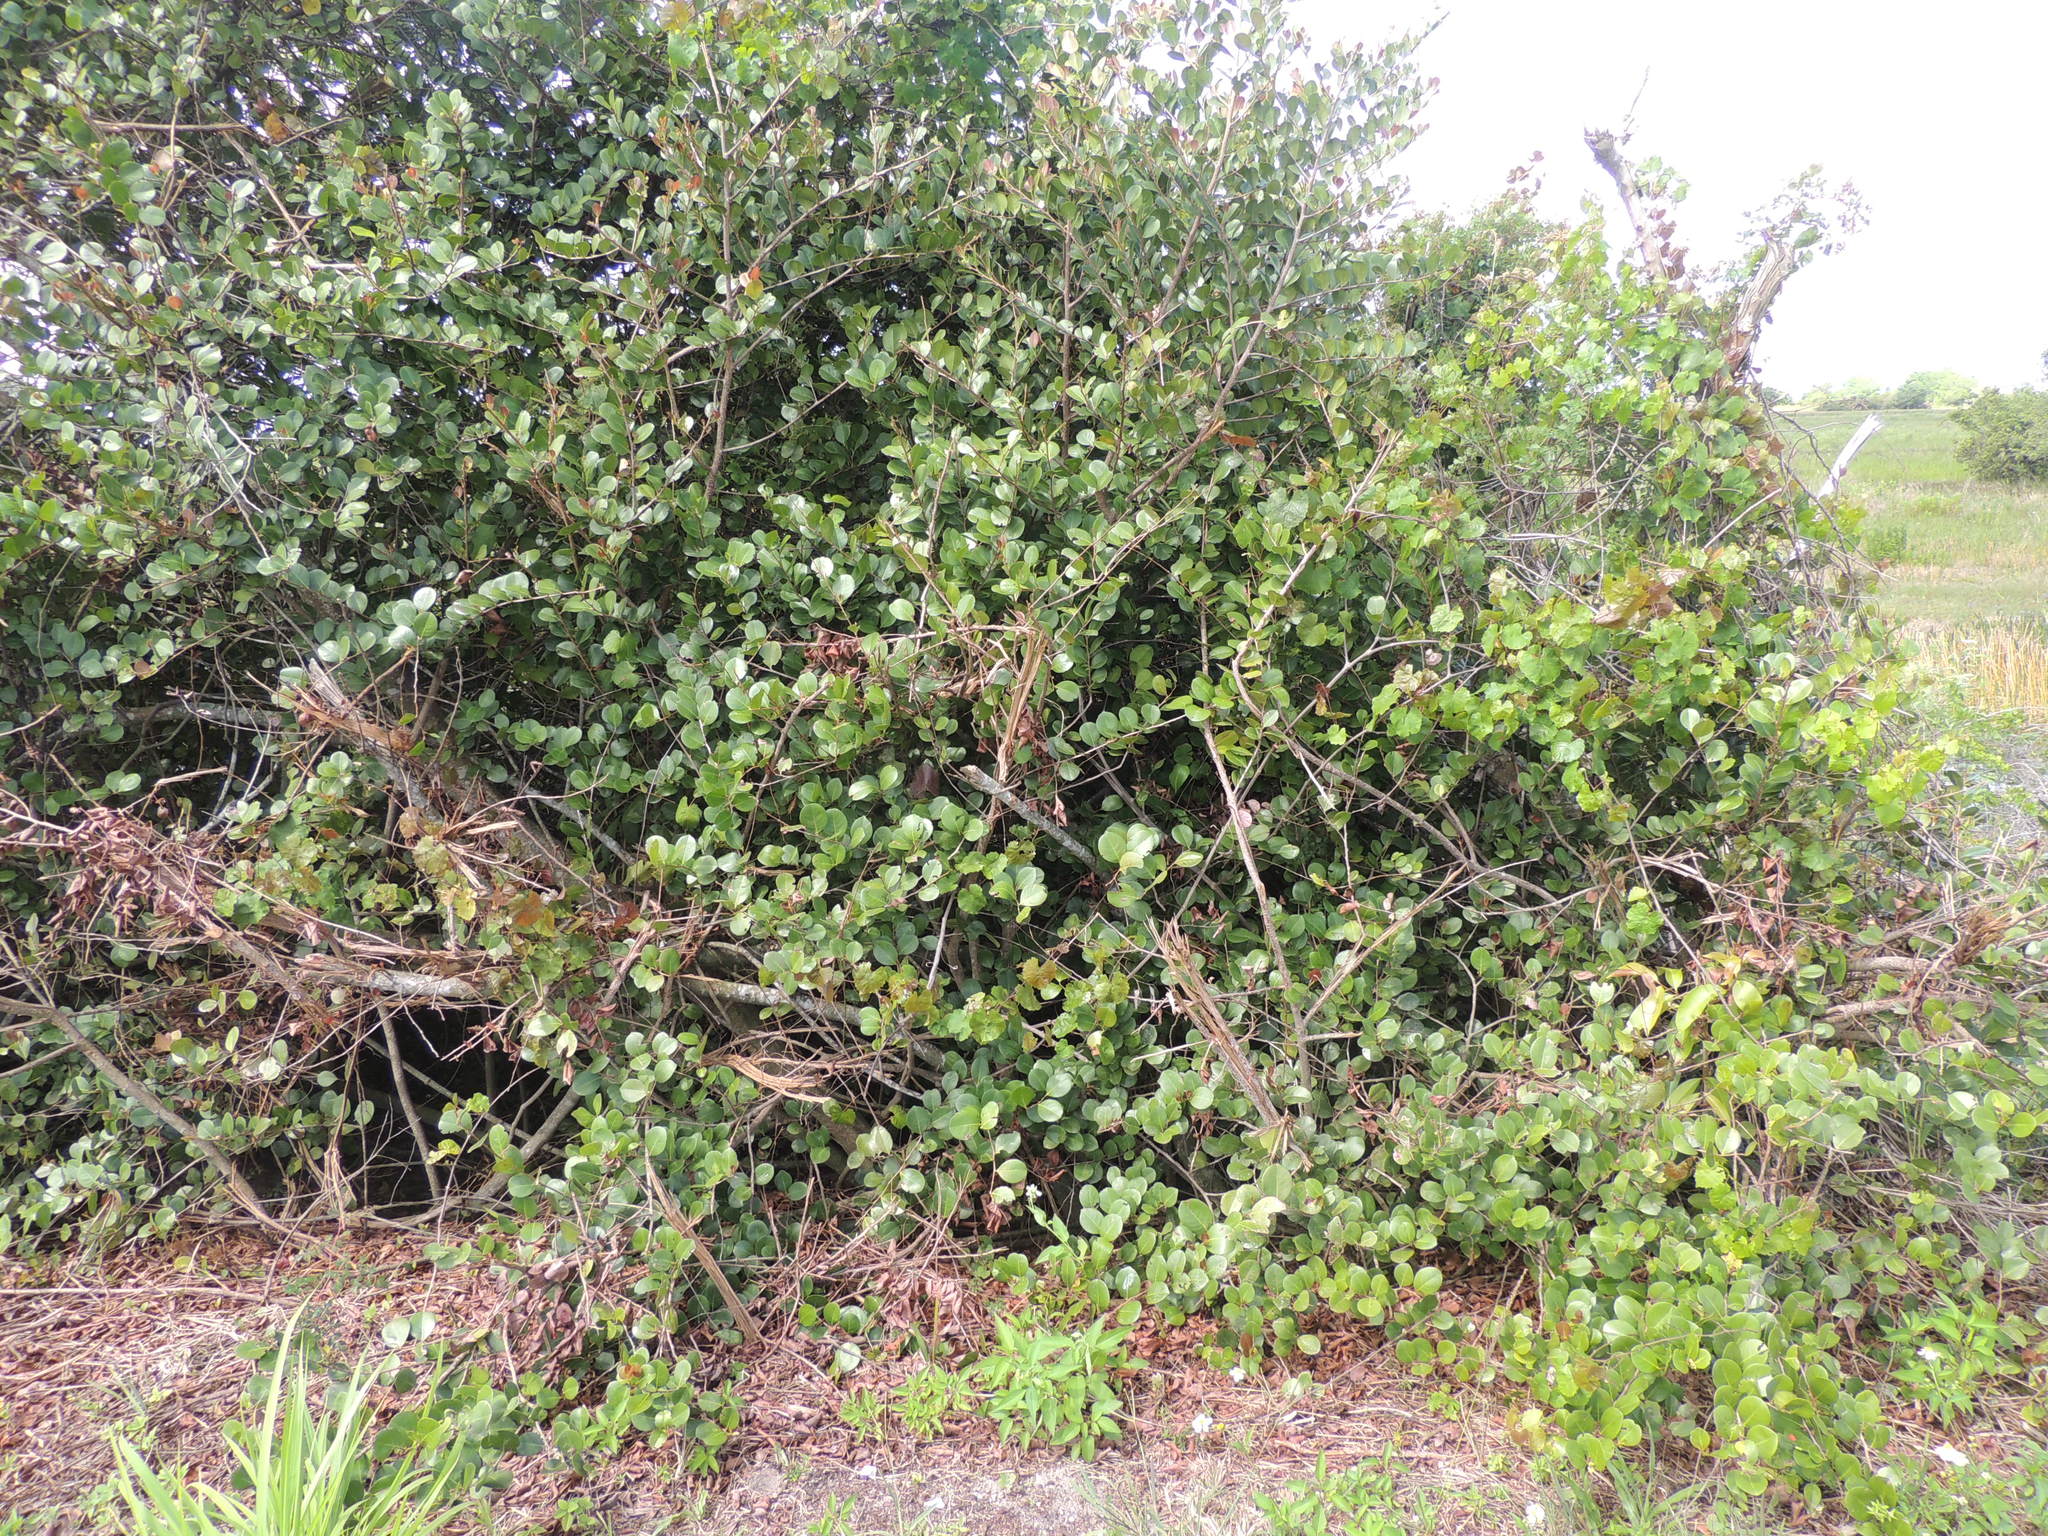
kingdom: Plantae
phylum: Tracheophyta
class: Magnoliopsida
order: Malpighiales
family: Chrysobalanaceae
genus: Chrysobalanus
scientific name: Chrysobalanus icaco
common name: Coco plum
